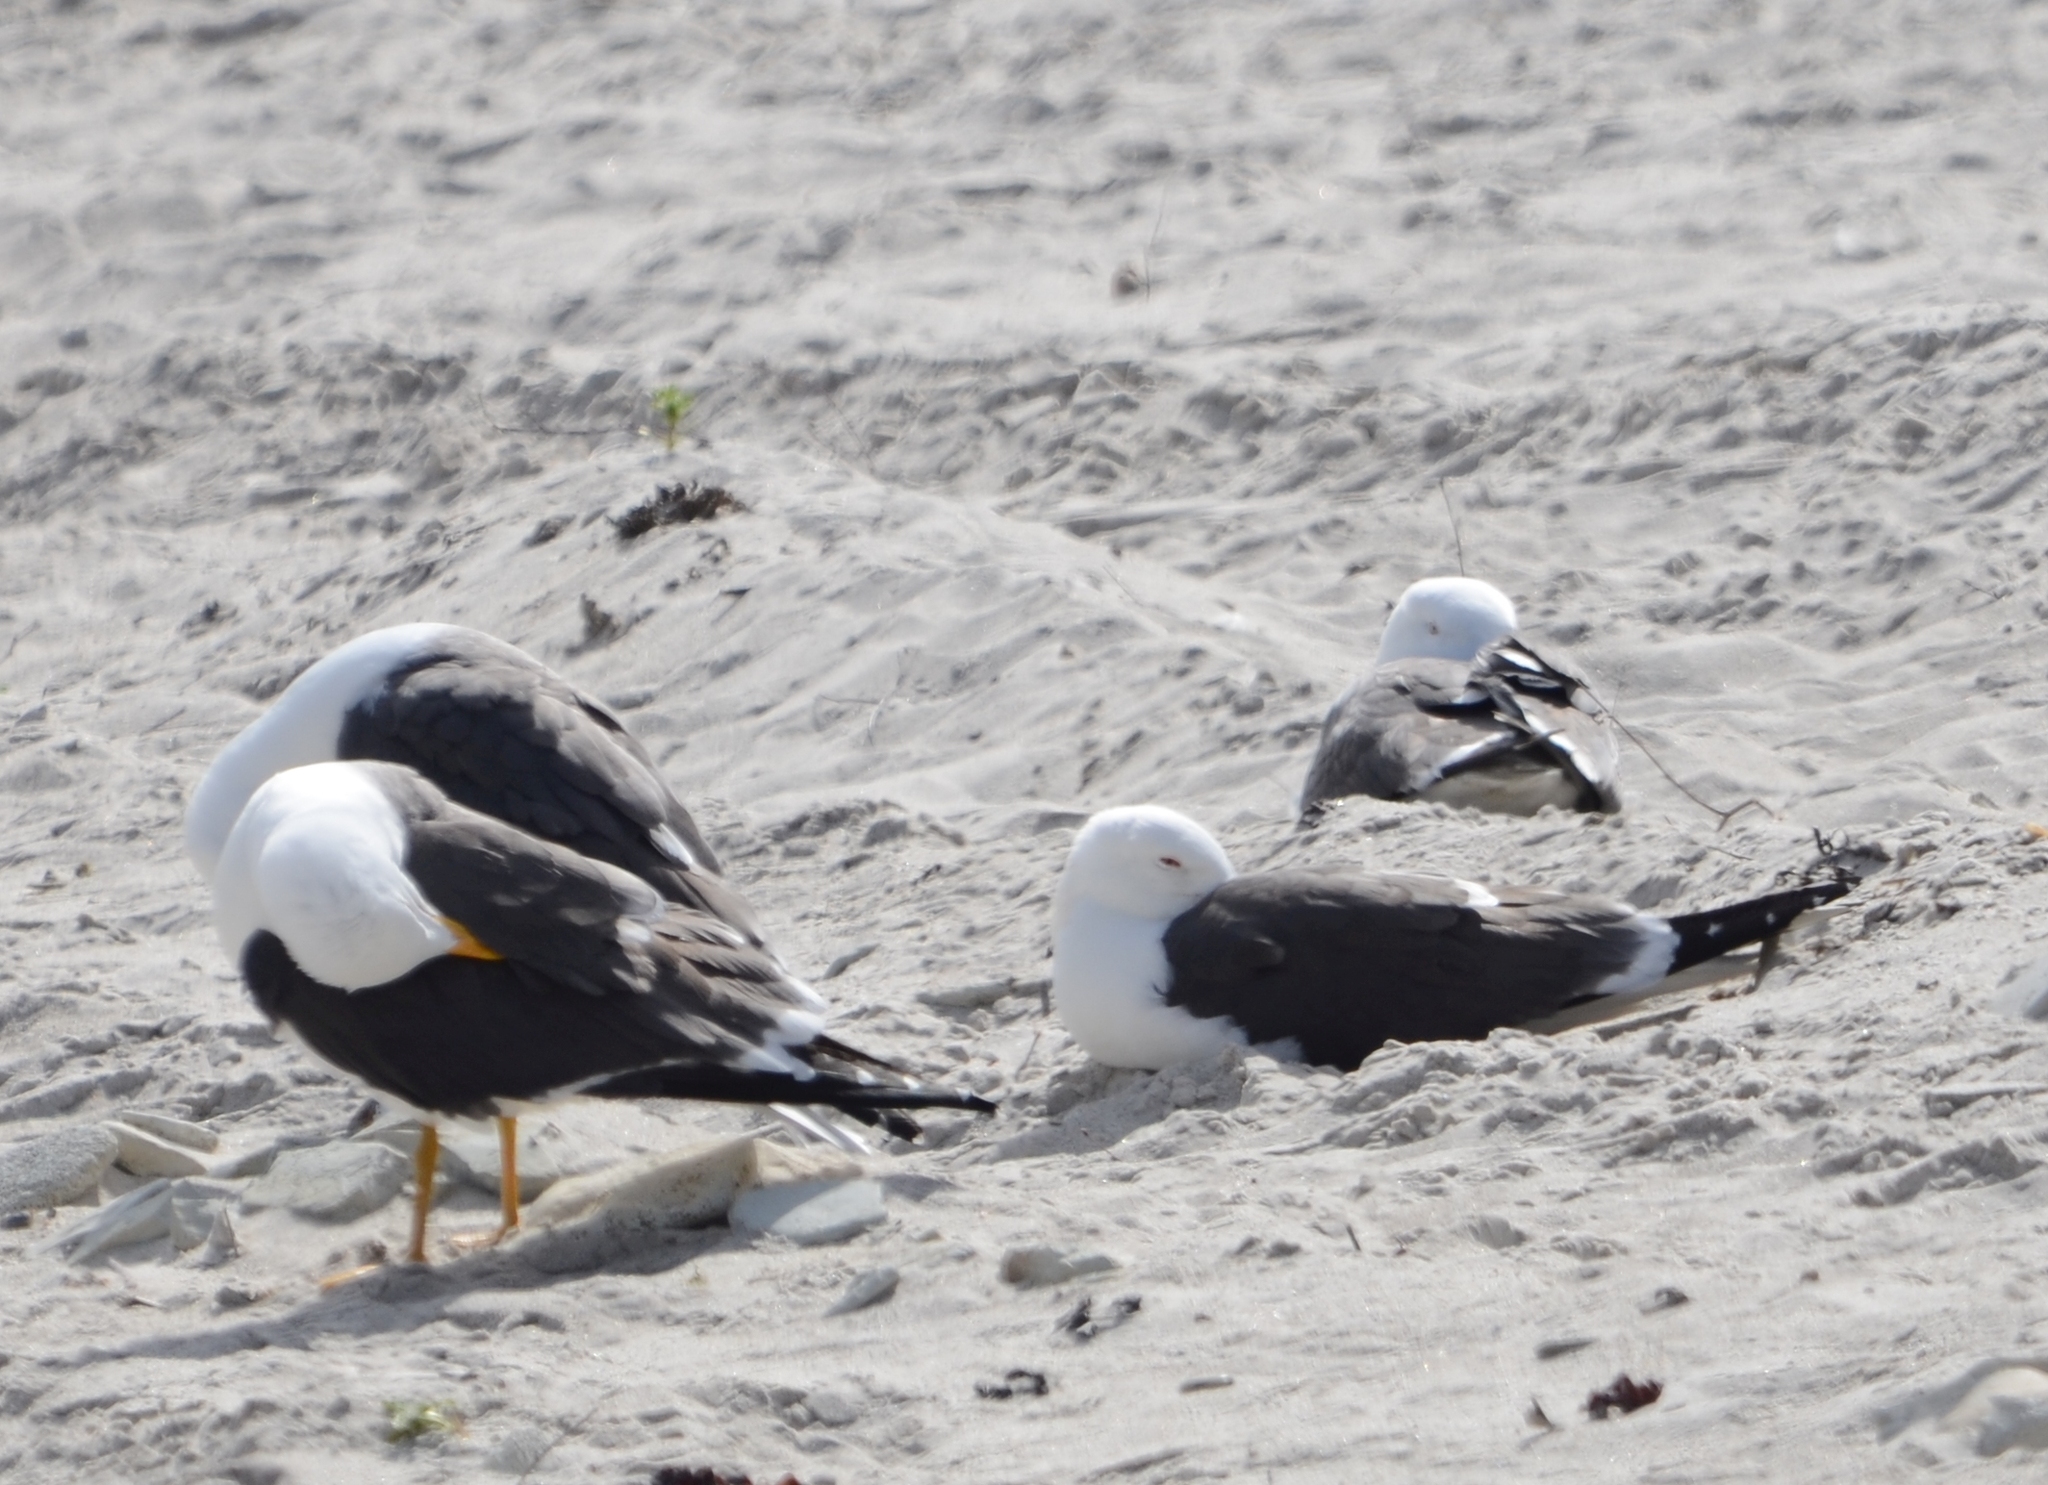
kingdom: Animalia
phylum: Chordata
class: Aves
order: Charadriiformes
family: Laridae
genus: Larus
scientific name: Larus fuscus
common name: Lesser black-backed gull
